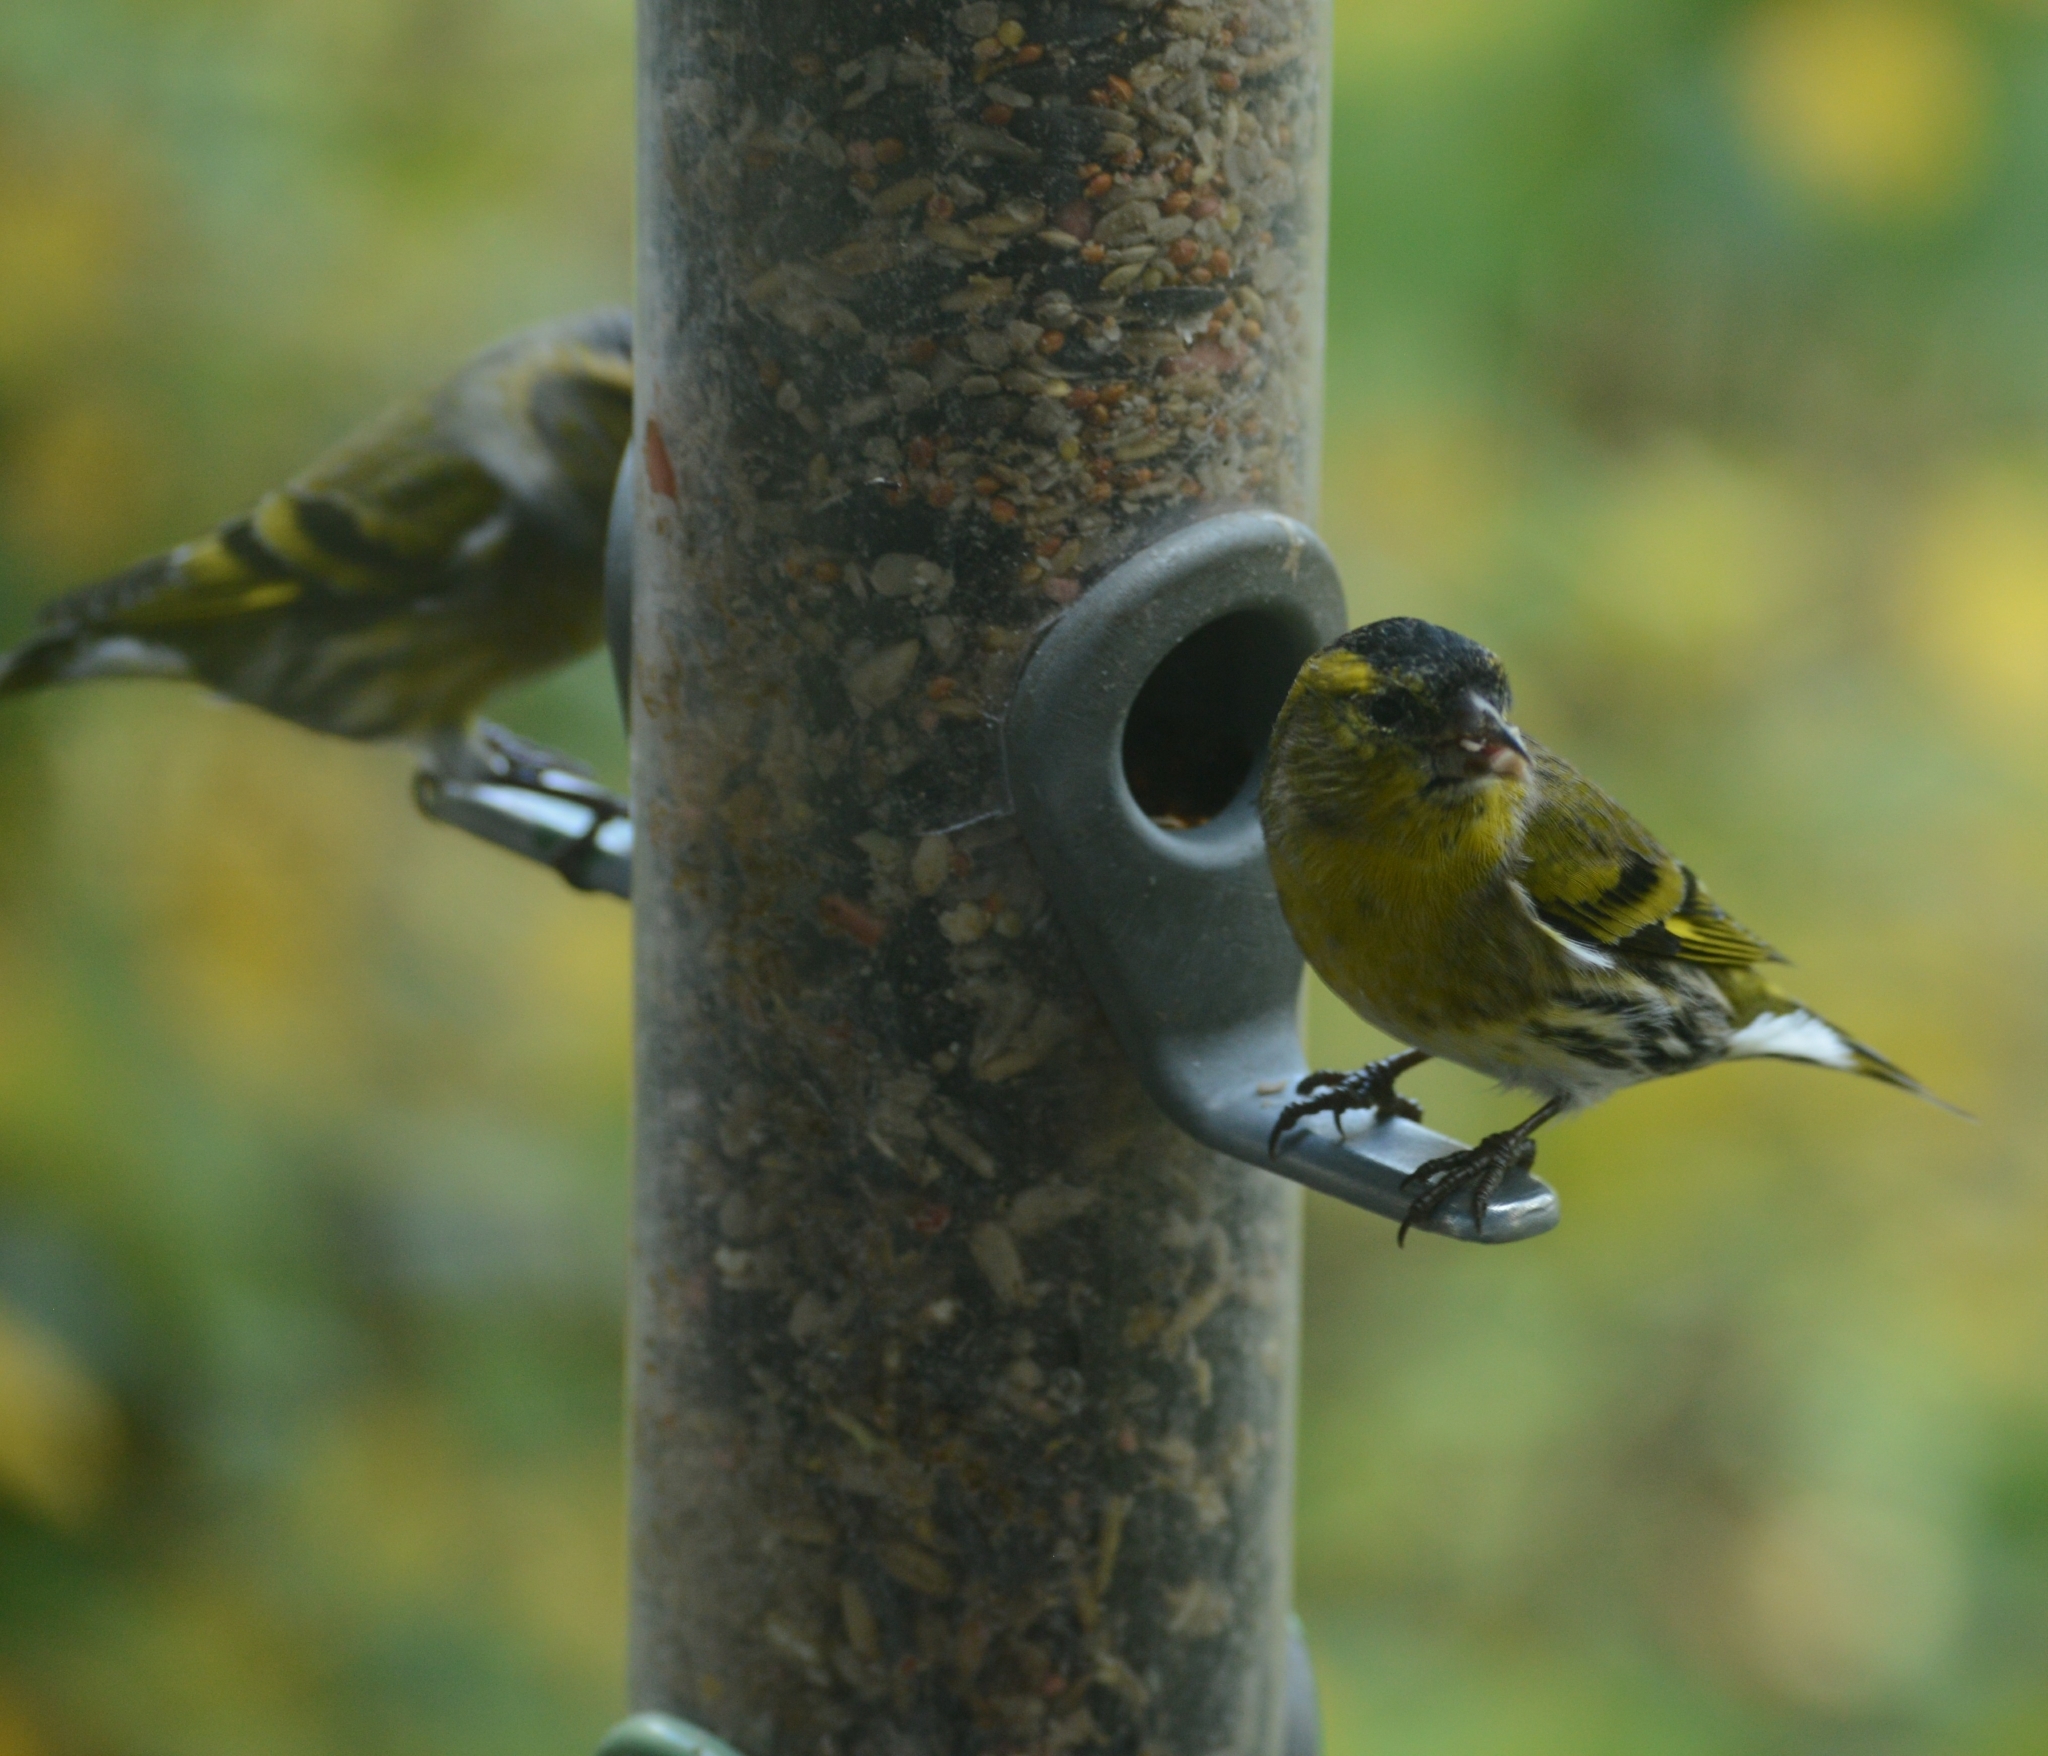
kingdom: Animalia
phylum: Chordata
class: Aves
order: Passeriformes
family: Fringillidae
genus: Spinus
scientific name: Spinus spinus
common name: Eurasian siskin
